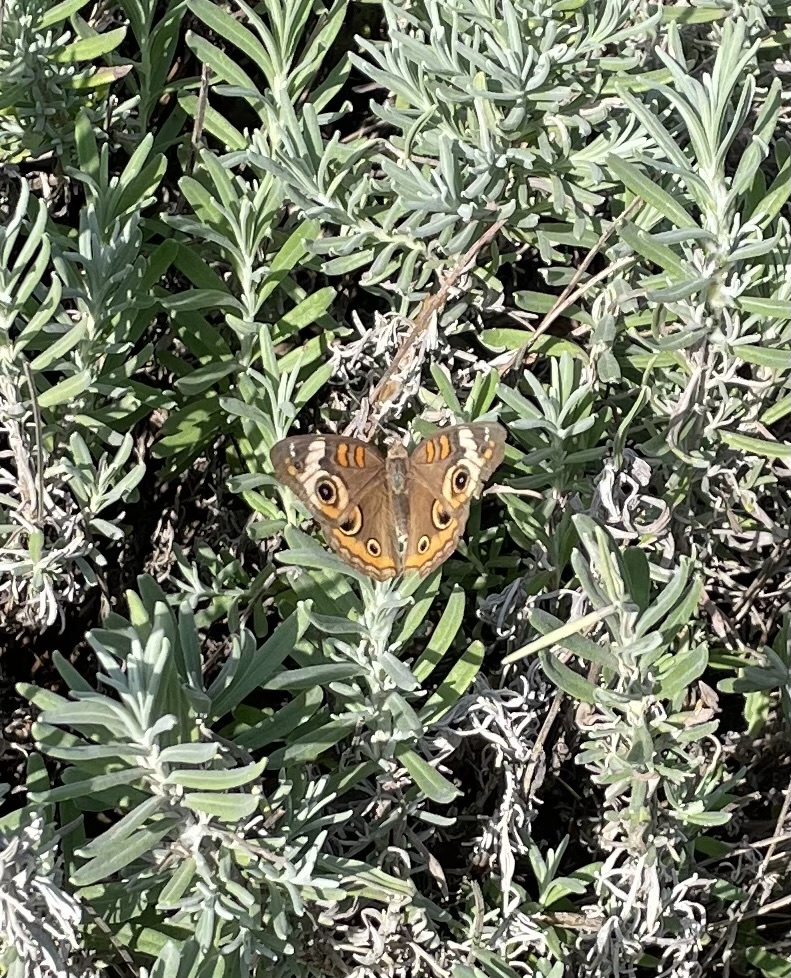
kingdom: Animalia
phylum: Arthropoda
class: Insecta
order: Lepidoptera
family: Nymphalidae
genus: Junonia
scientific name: Junonia coenia
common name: Common buckeye
